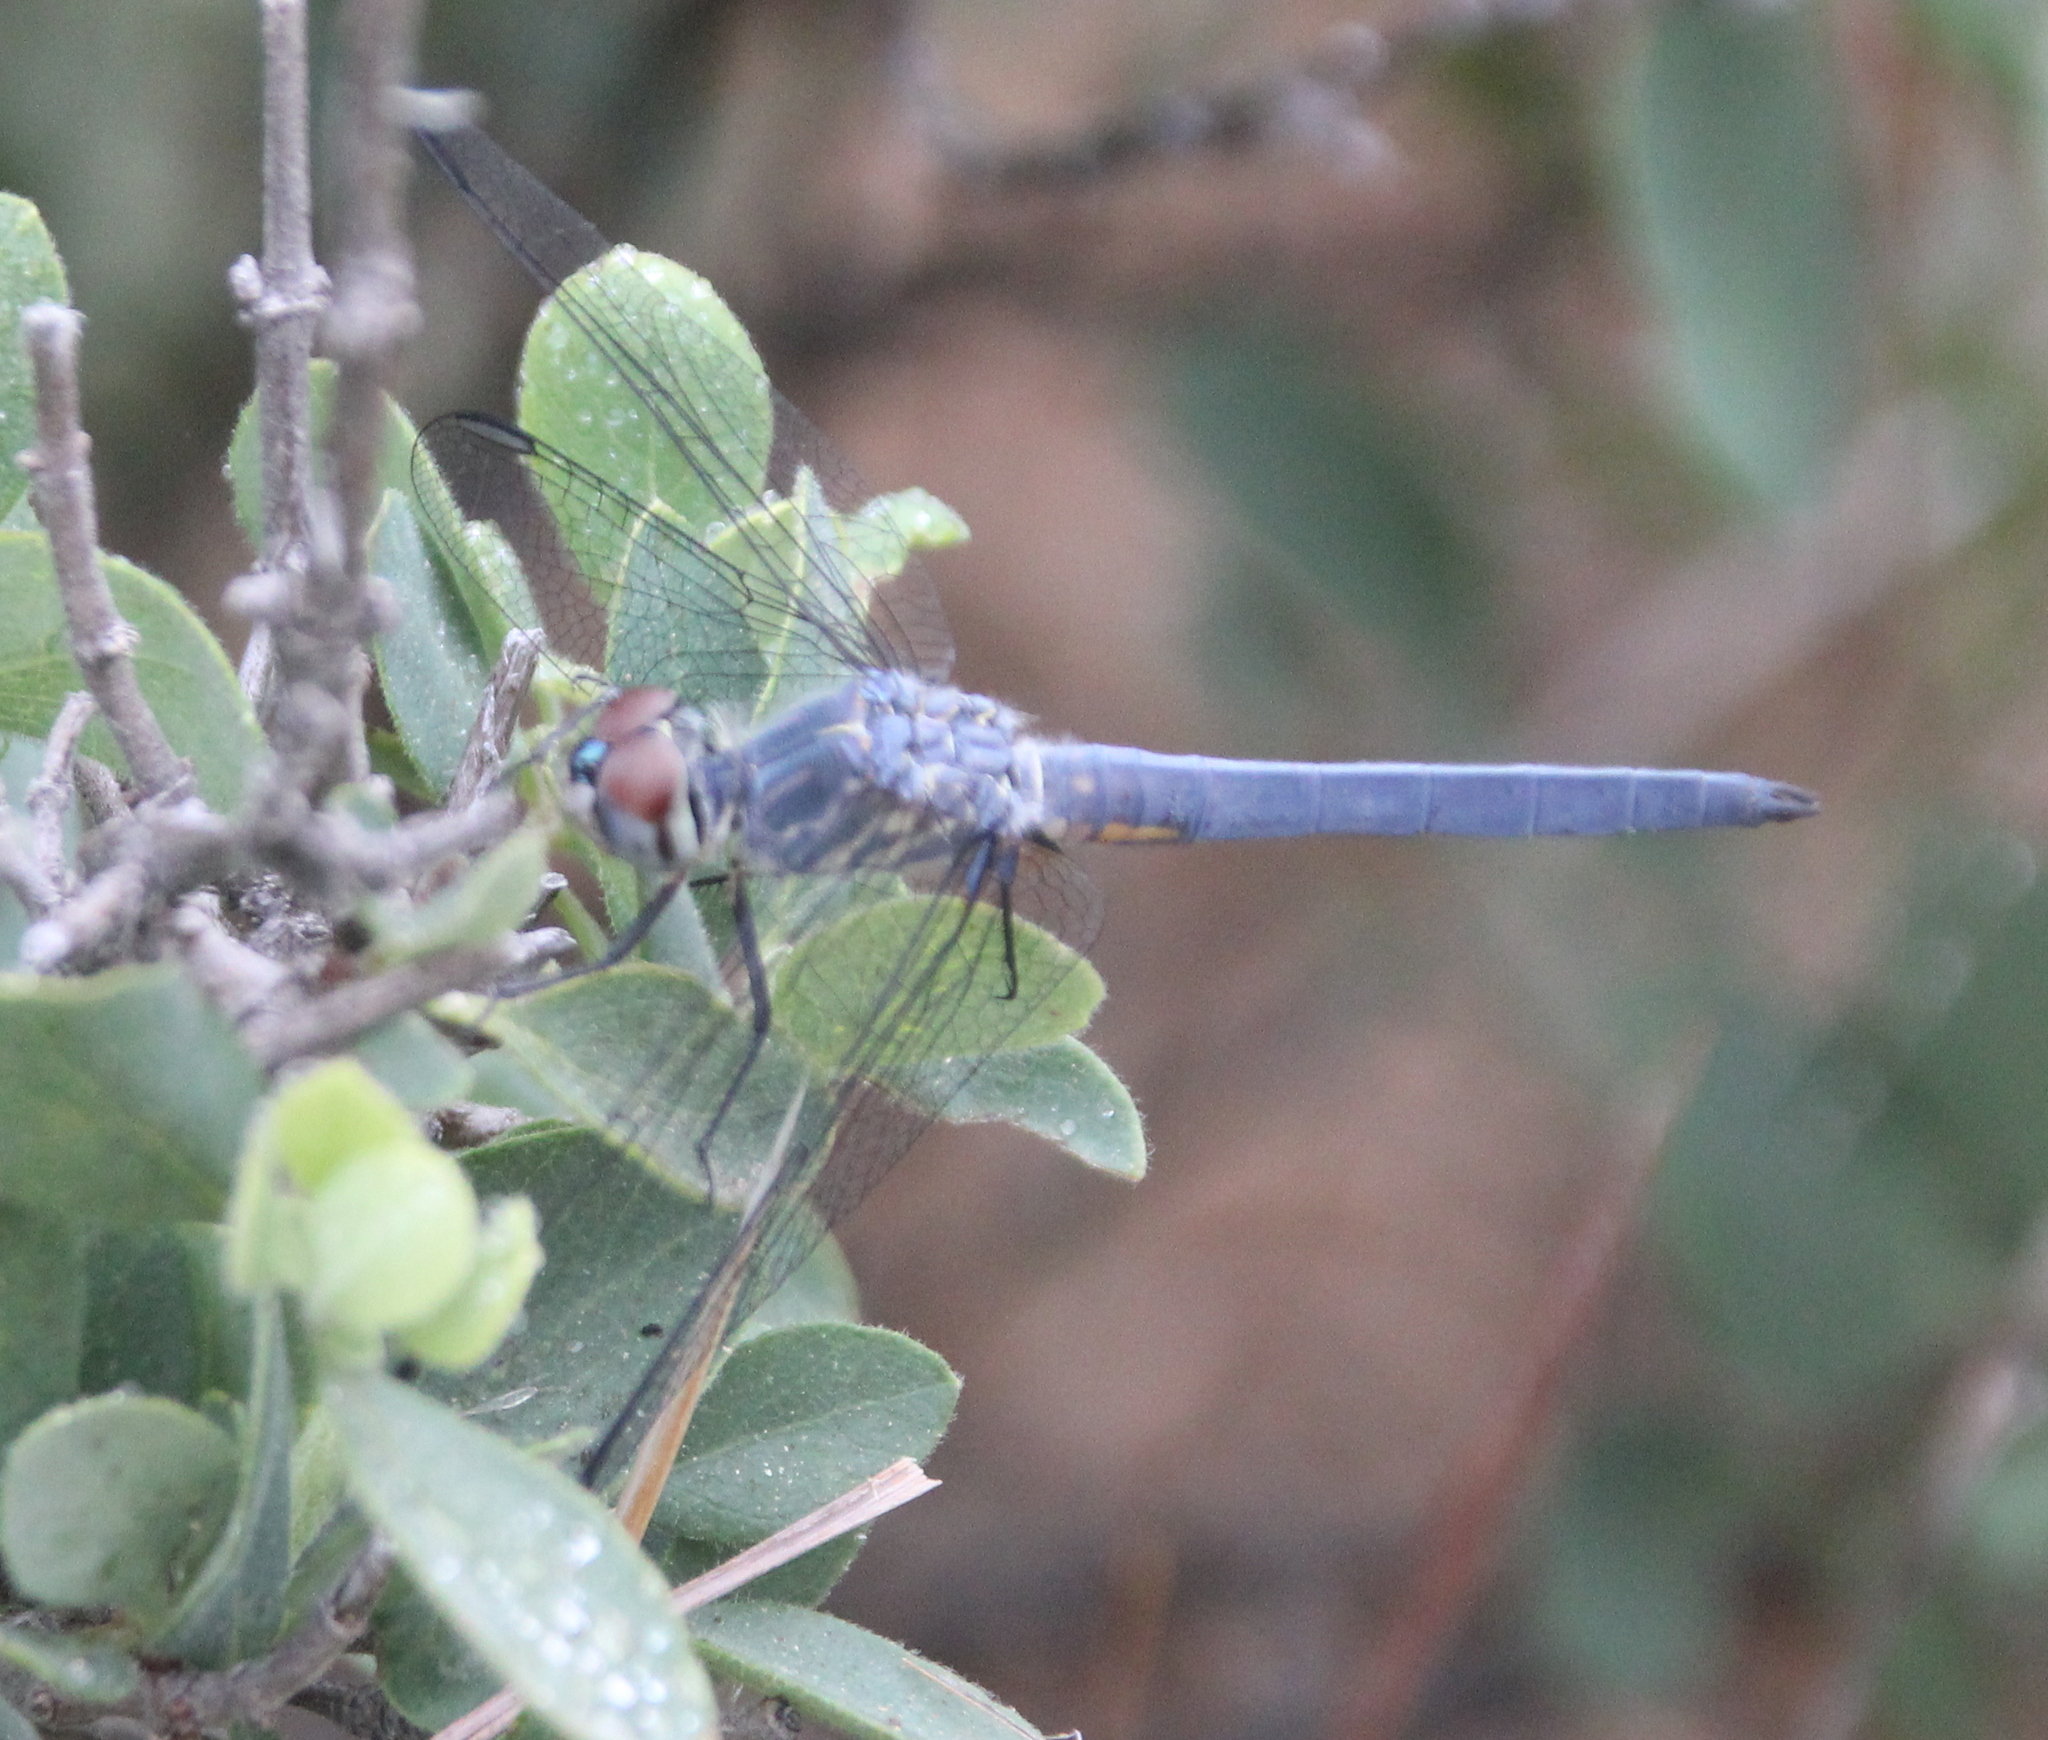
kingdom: Animalia
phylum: Arthropoda
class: Insecta
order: Odonata
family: Libellulidae
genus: Pachydiplax
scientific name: Pachydiplax longipennis
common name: Blue dasher
